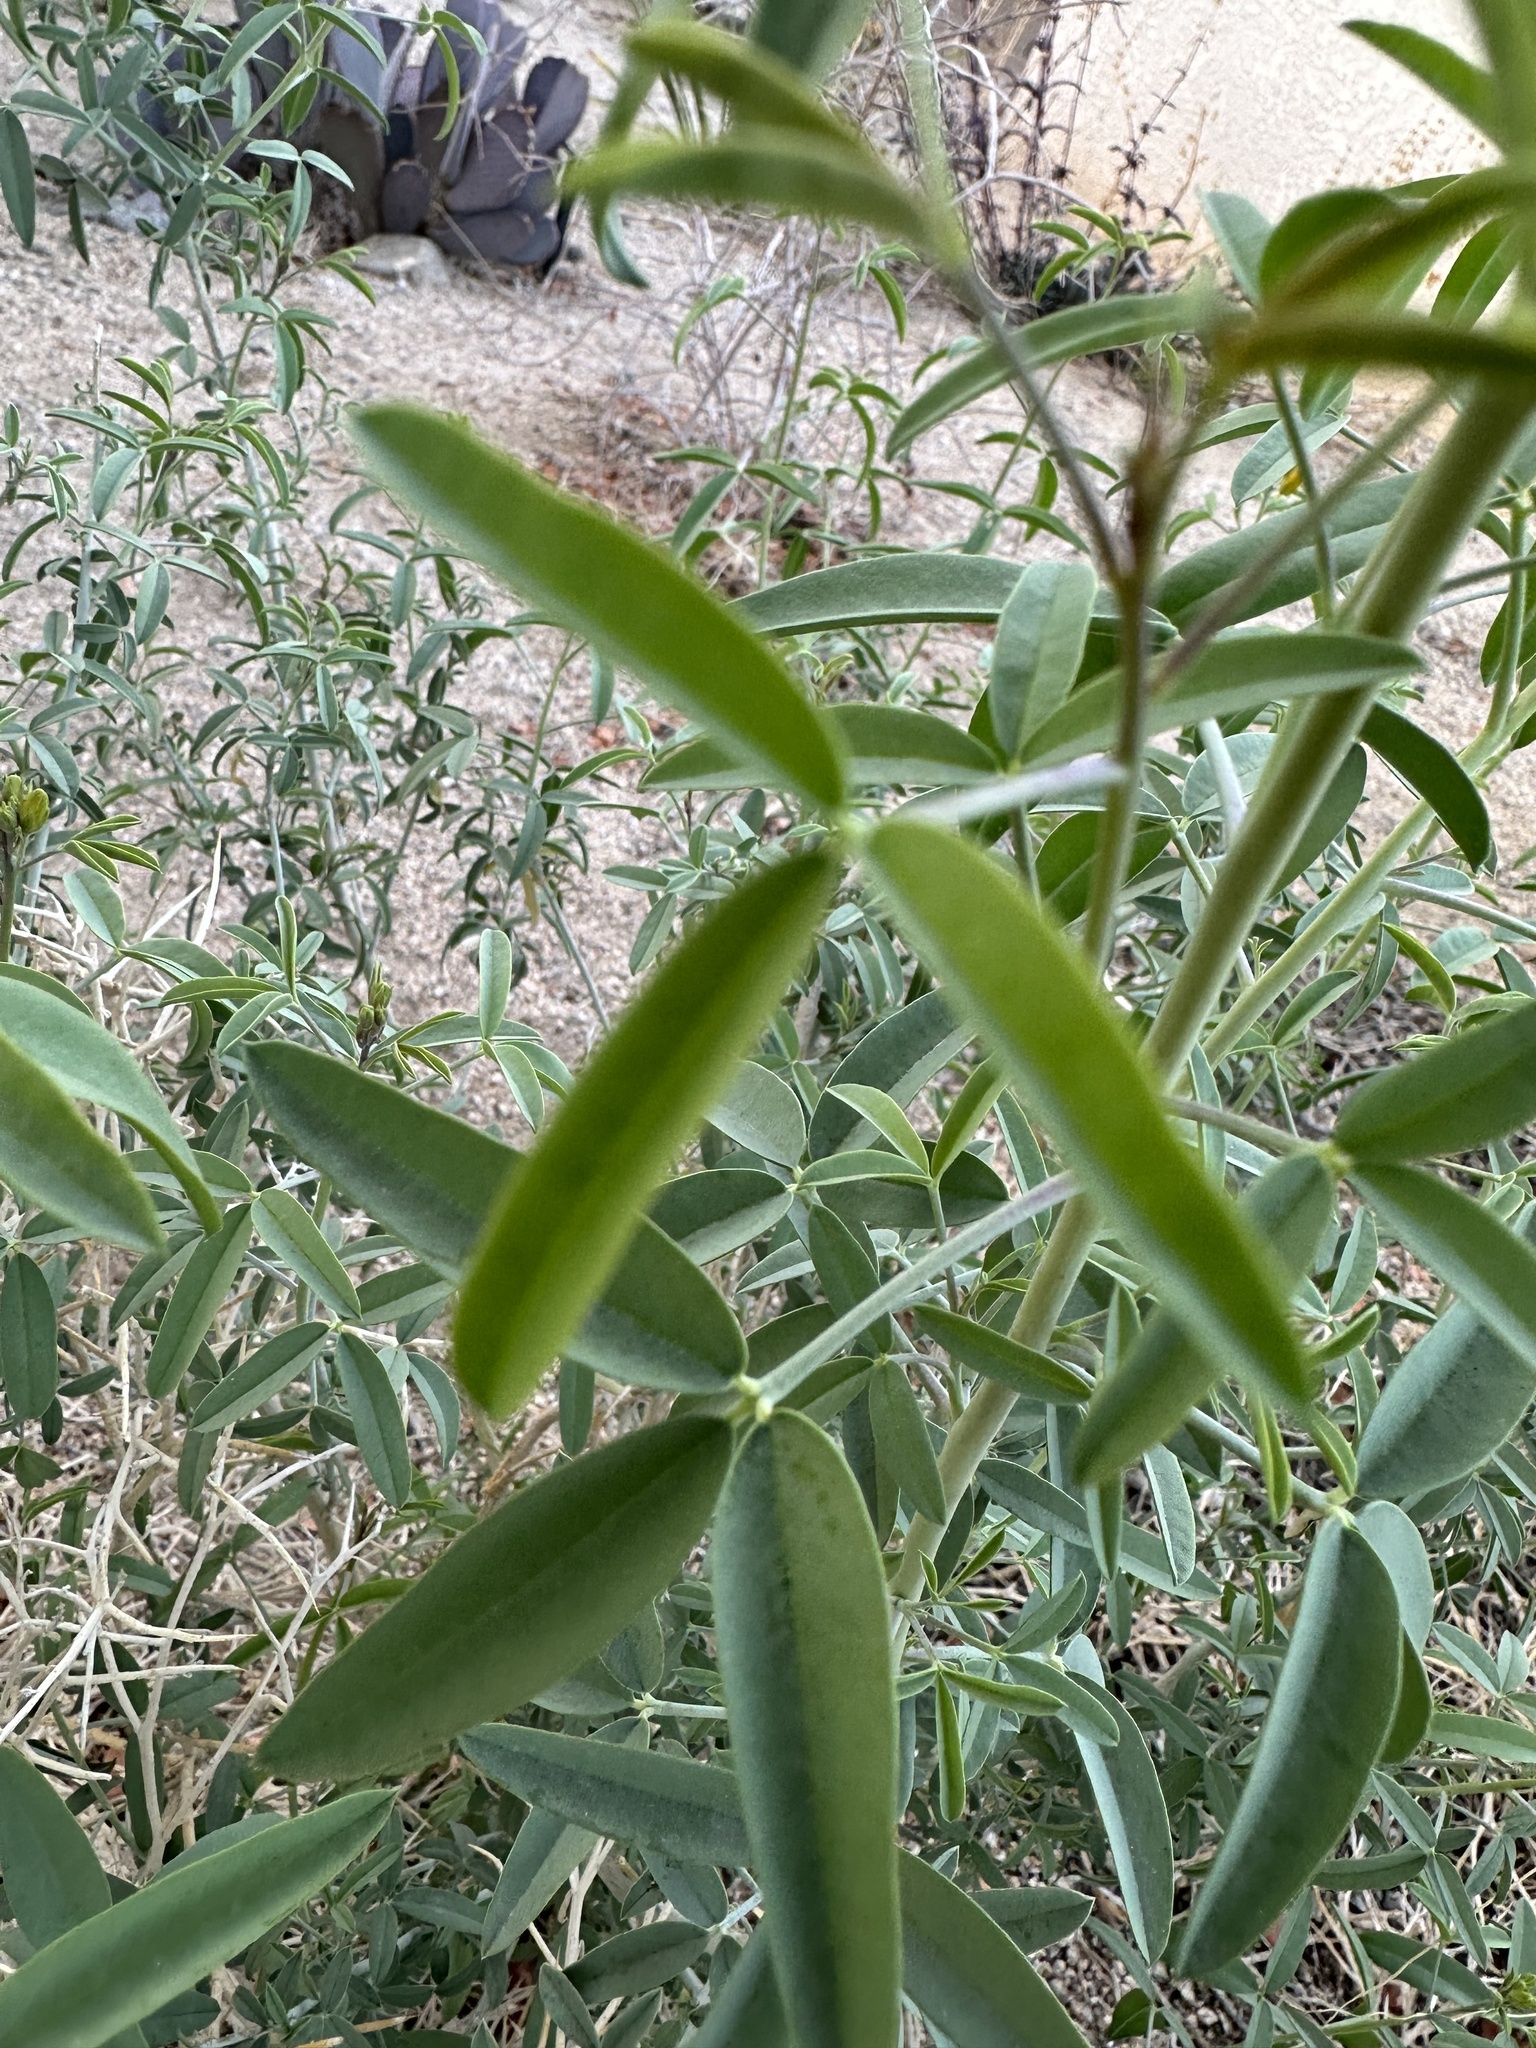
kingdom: Plantae
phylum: Tracheophyta
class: Magnoliopsida
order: Brassicales
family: Cleomaceae
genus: Cleomella
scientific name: Cleomella arborea
